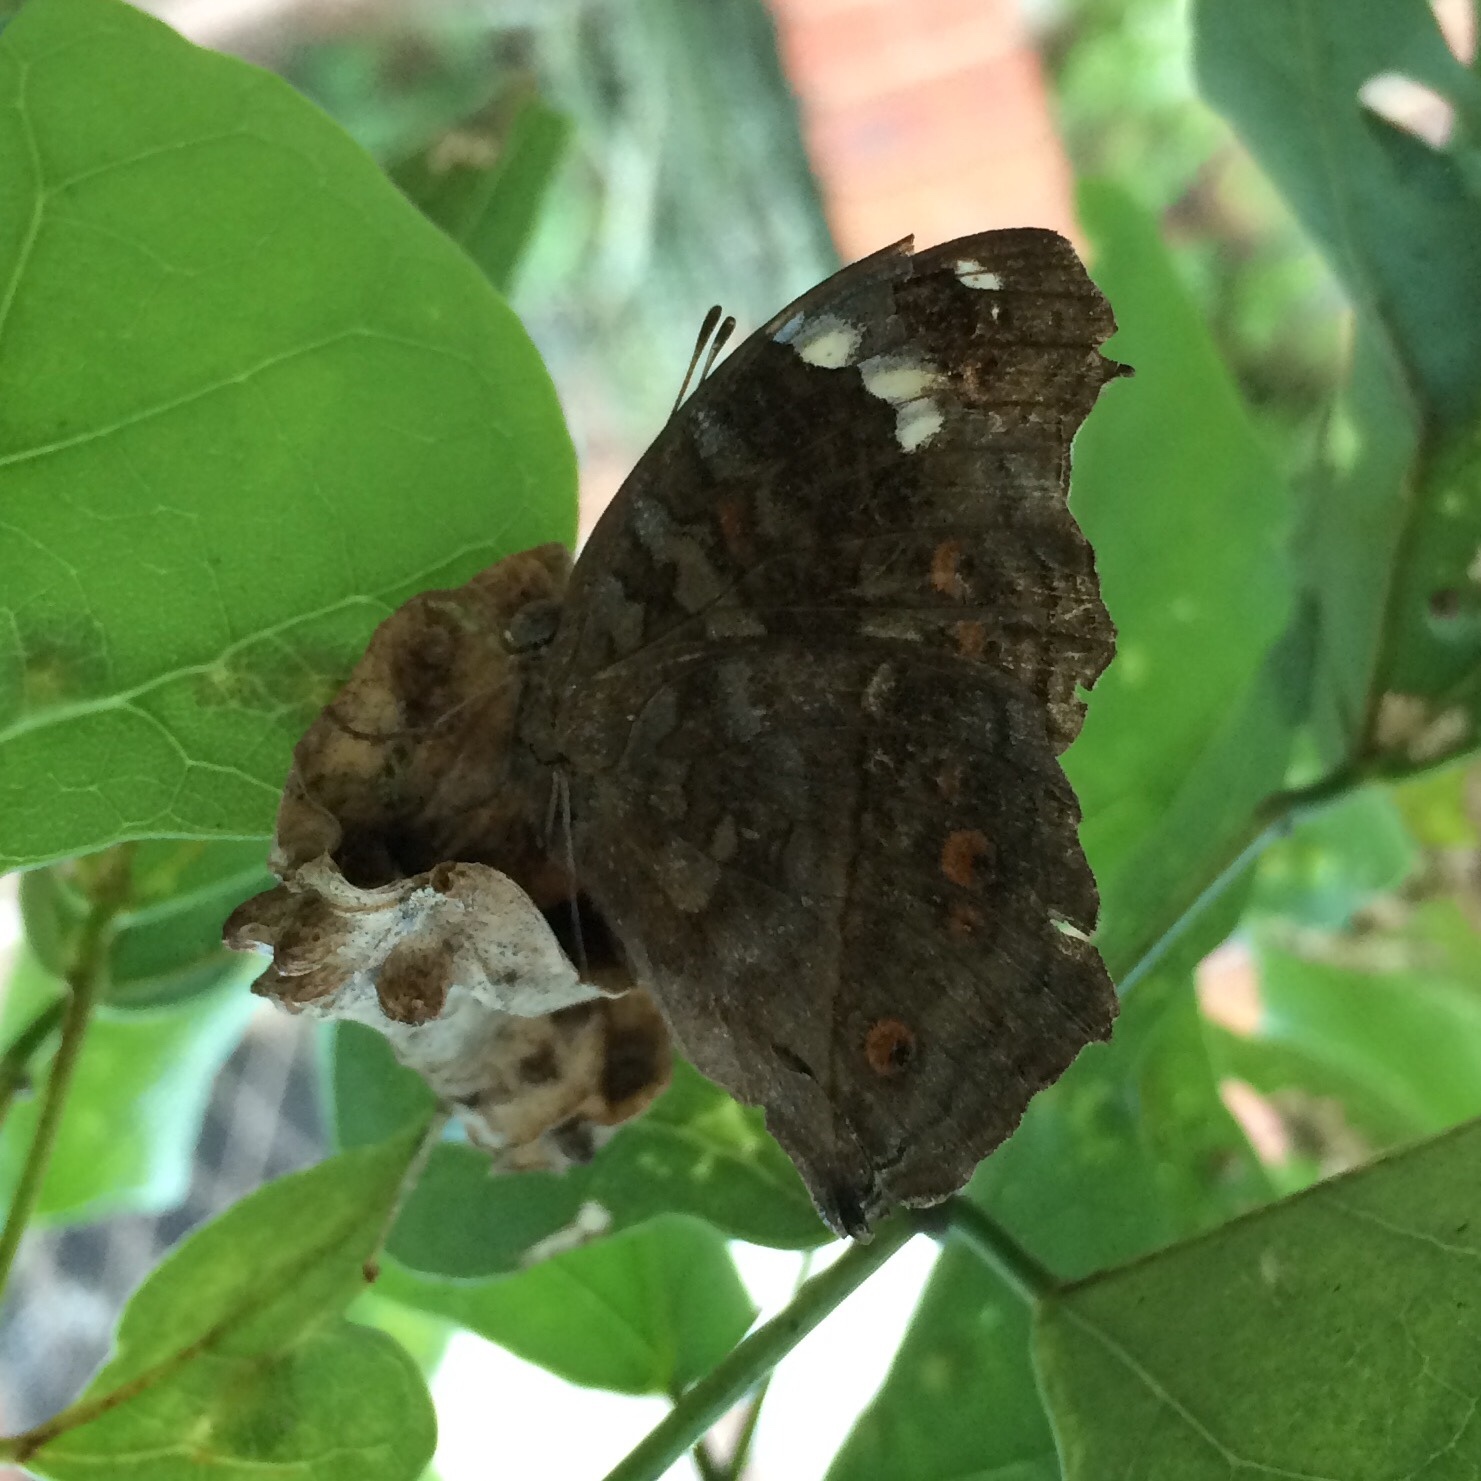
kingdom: Animalia
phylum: Arthropoda
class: Insecta
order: Lepidoptera
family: Nymphalidae
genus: Junonia
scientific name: Junonia natalica
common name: Brown pansy
